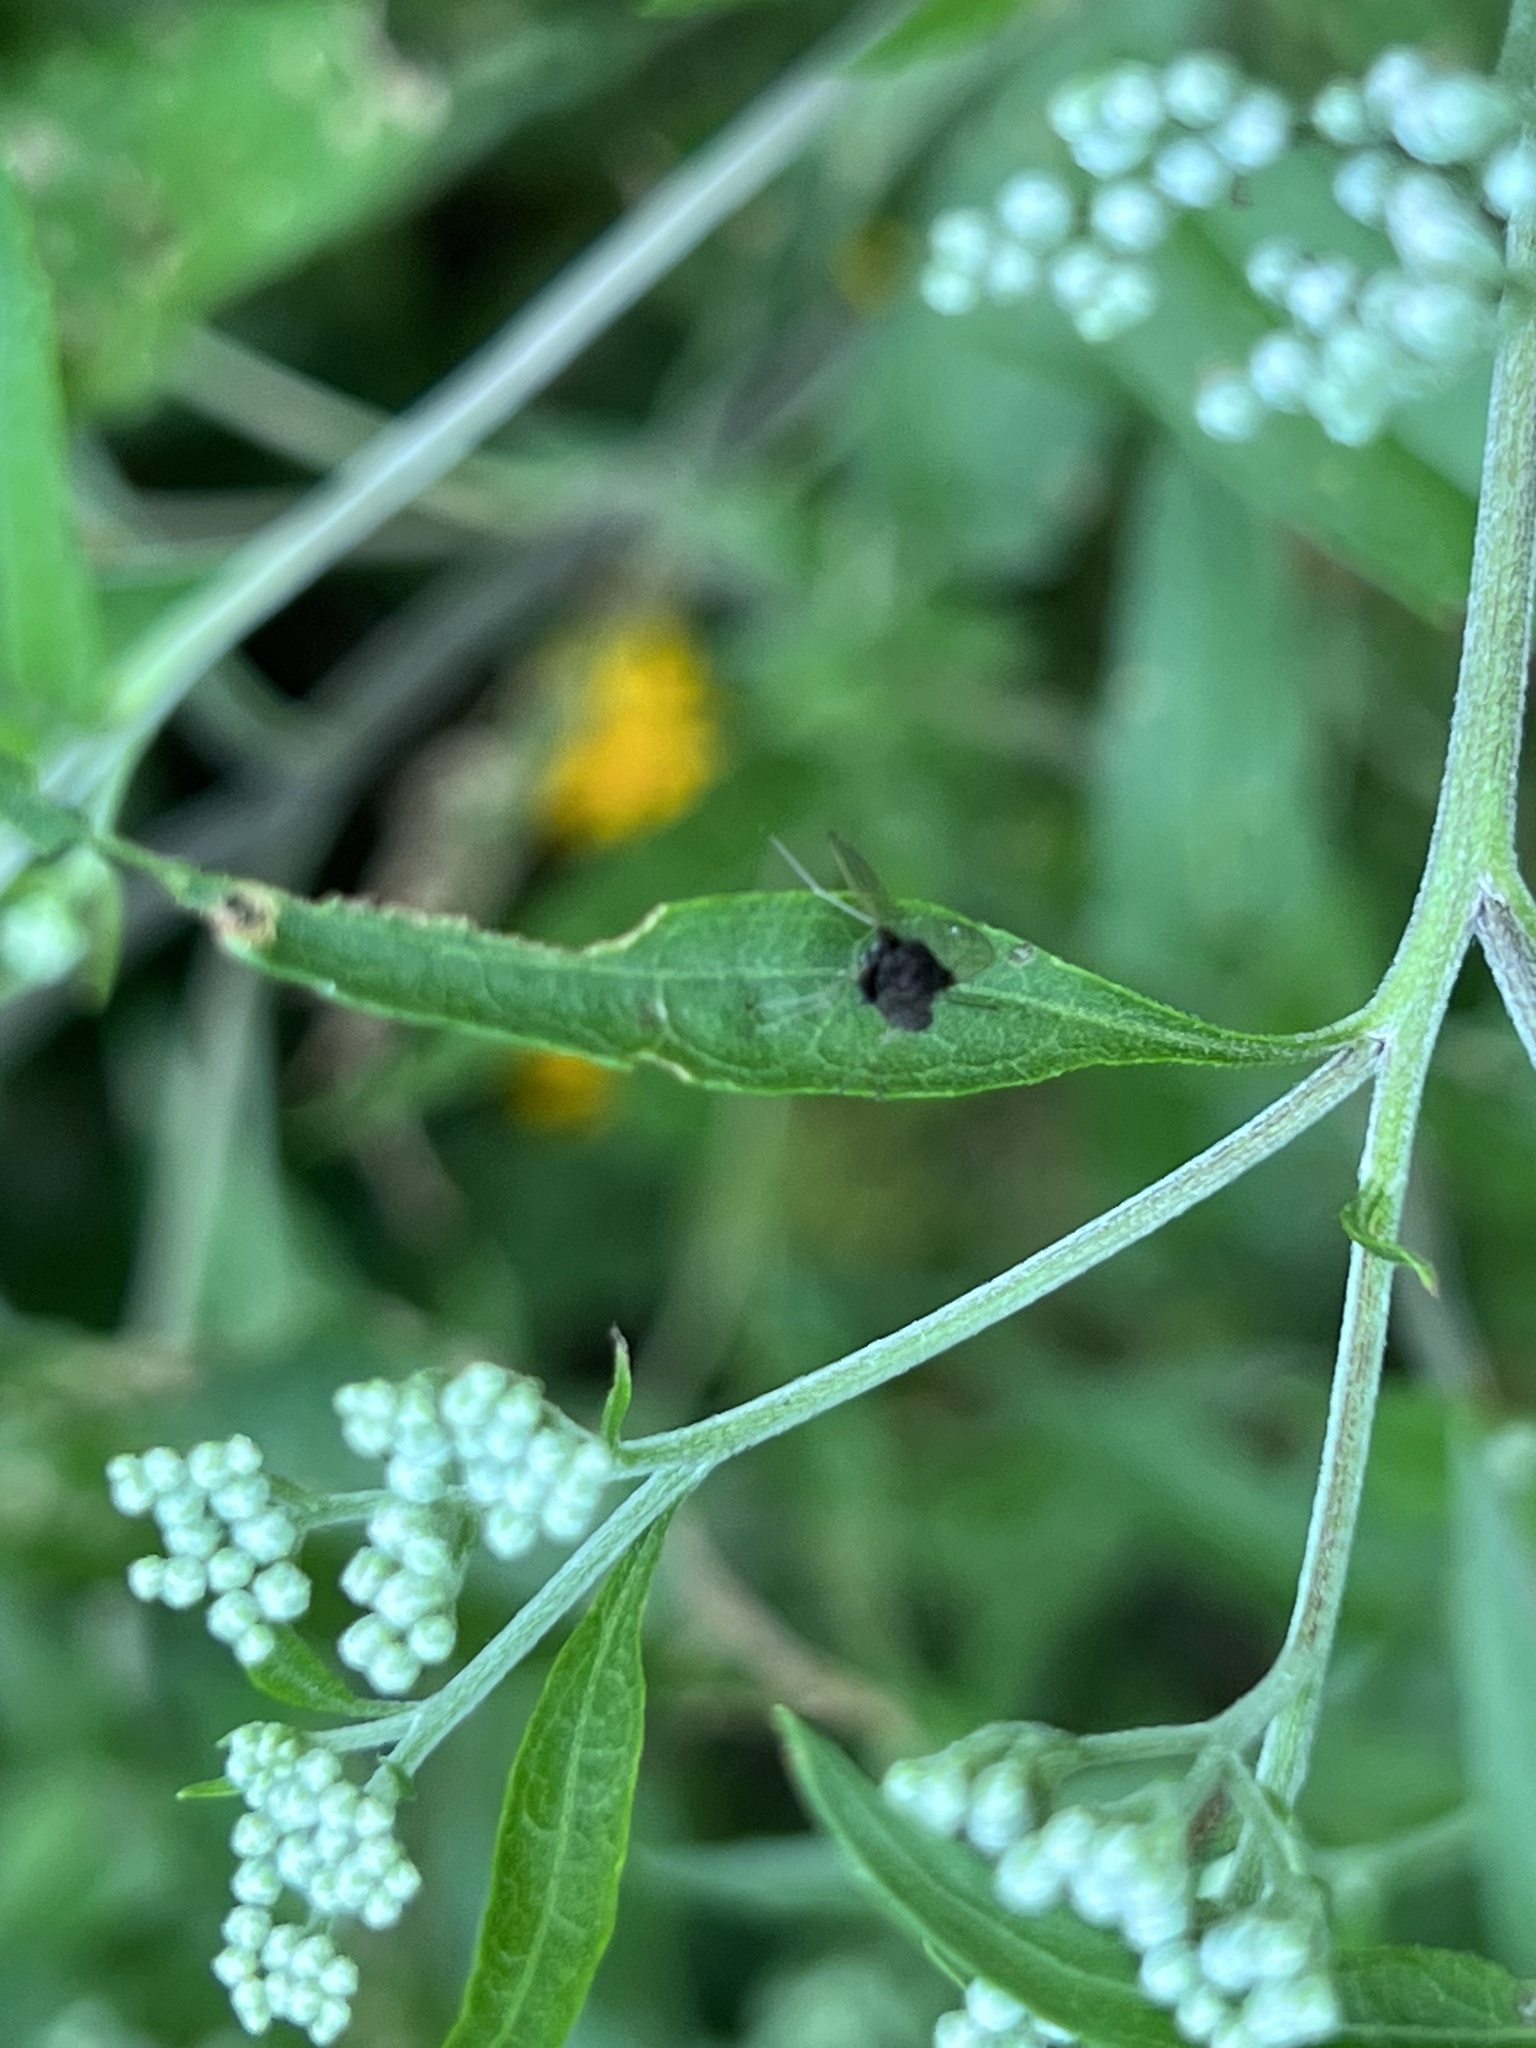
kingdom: Animalia
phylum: Arthropoda
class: Insecta
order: Diptera
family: Rhagionidae
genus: Chrysopilus
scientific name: Chrysopilus basilaris
